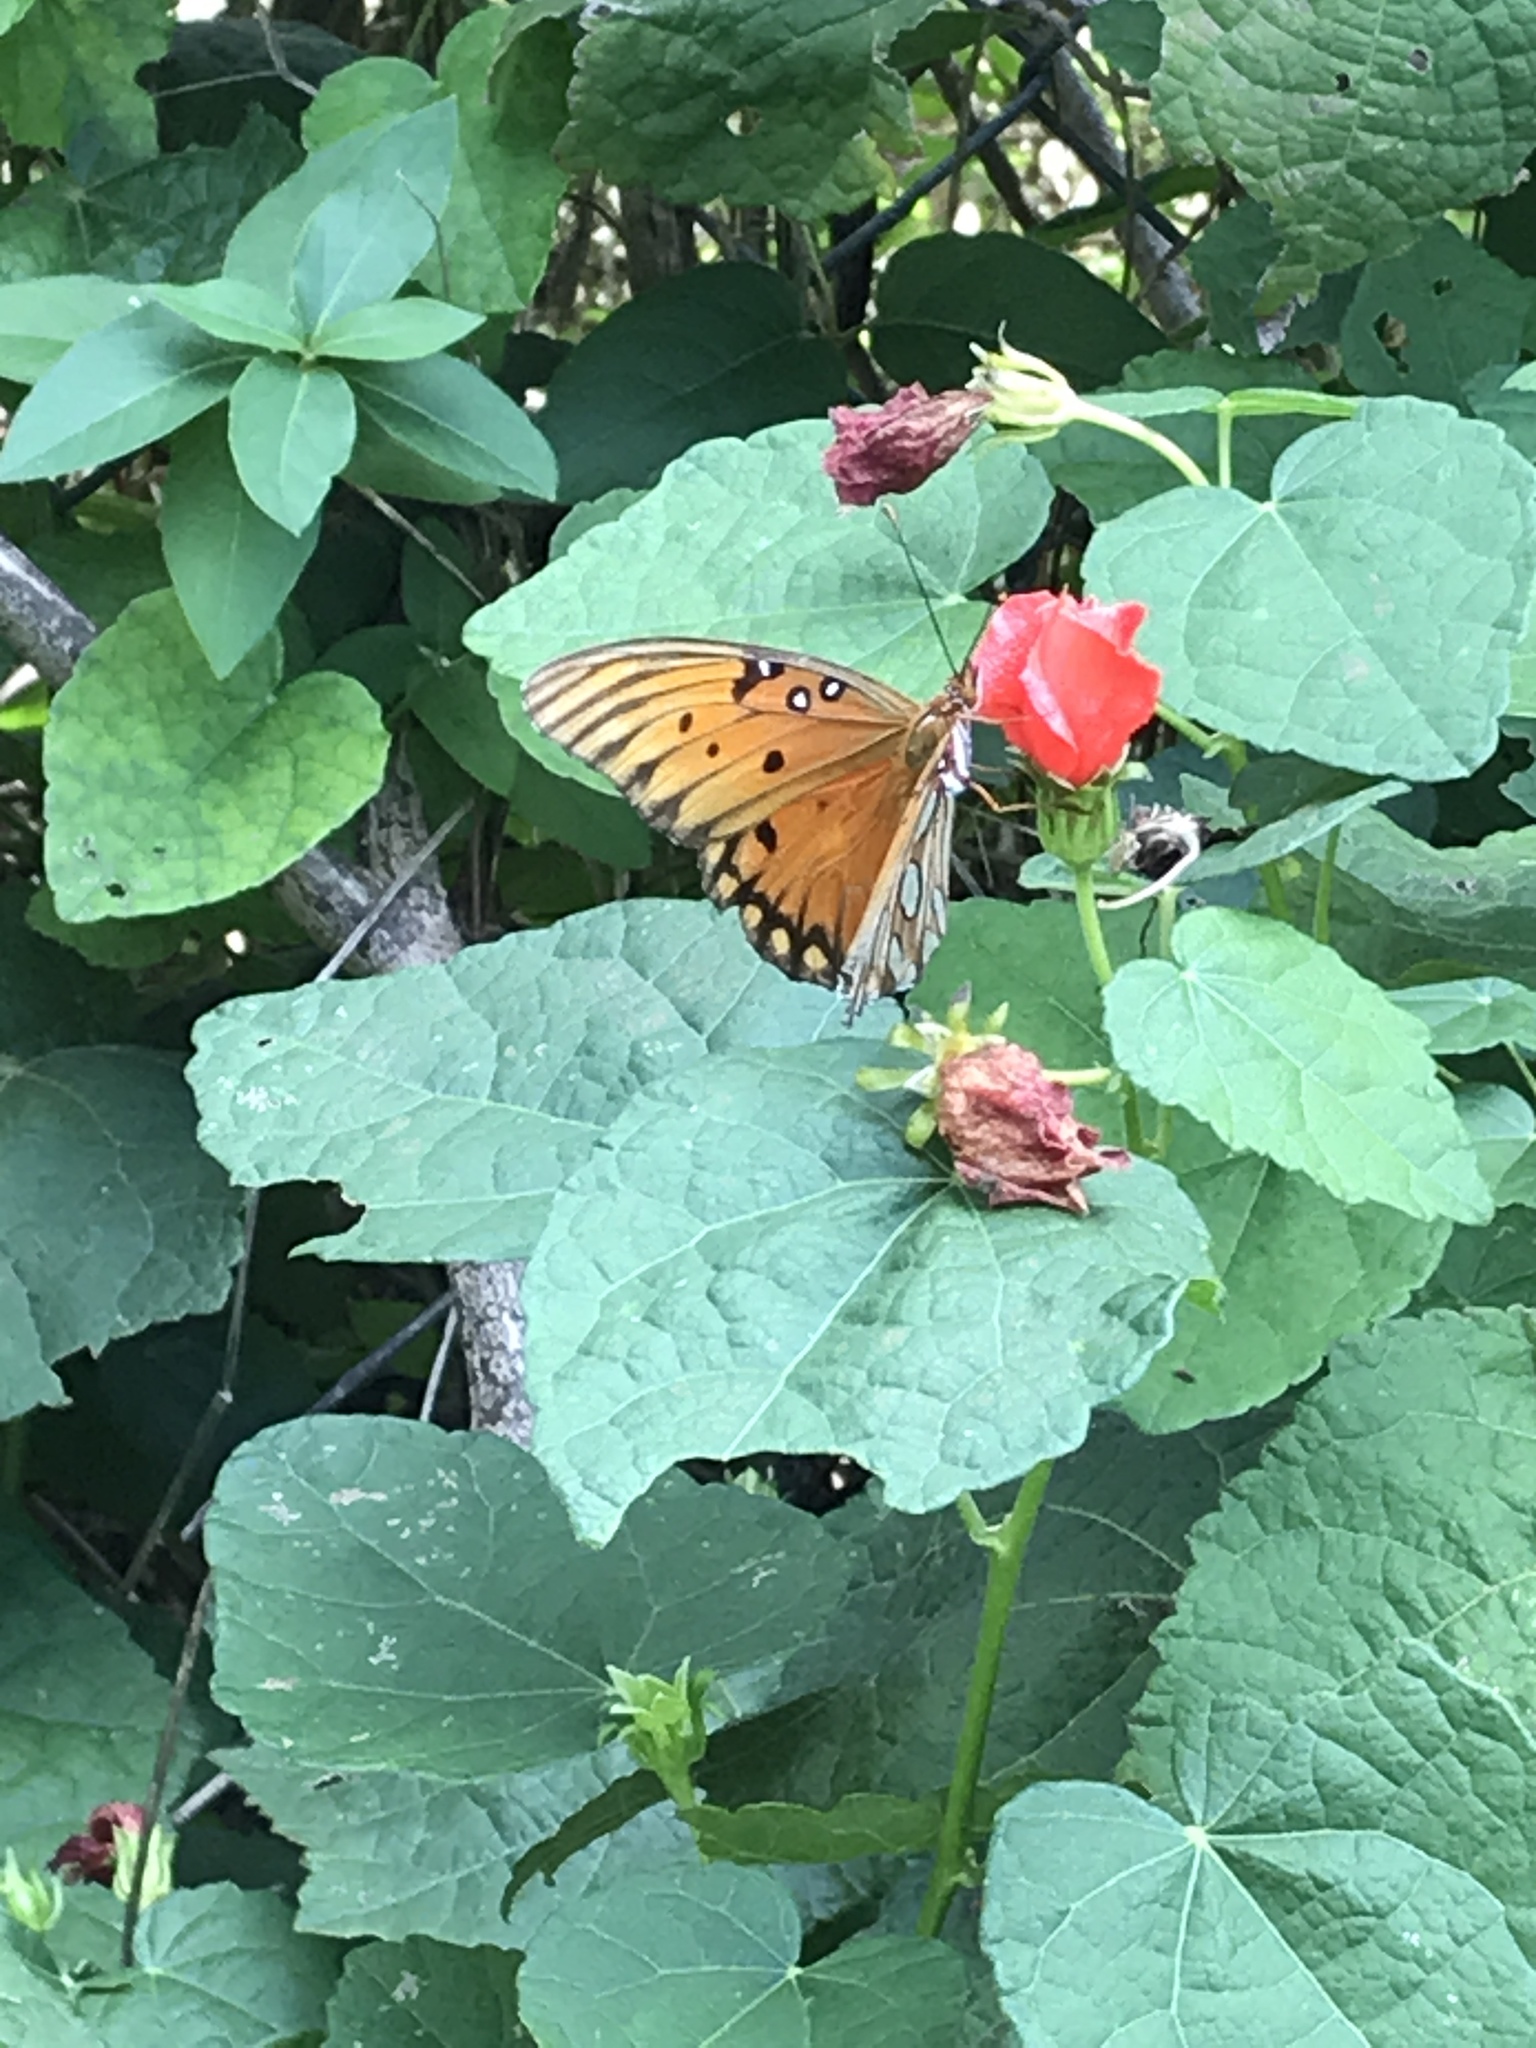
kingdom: Animalia
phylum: Arthropoda
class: Insecta
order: Lepidoptera
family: Nymphalidae
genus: Dione
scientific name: Dione vanillae
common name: Gulf fritillary
